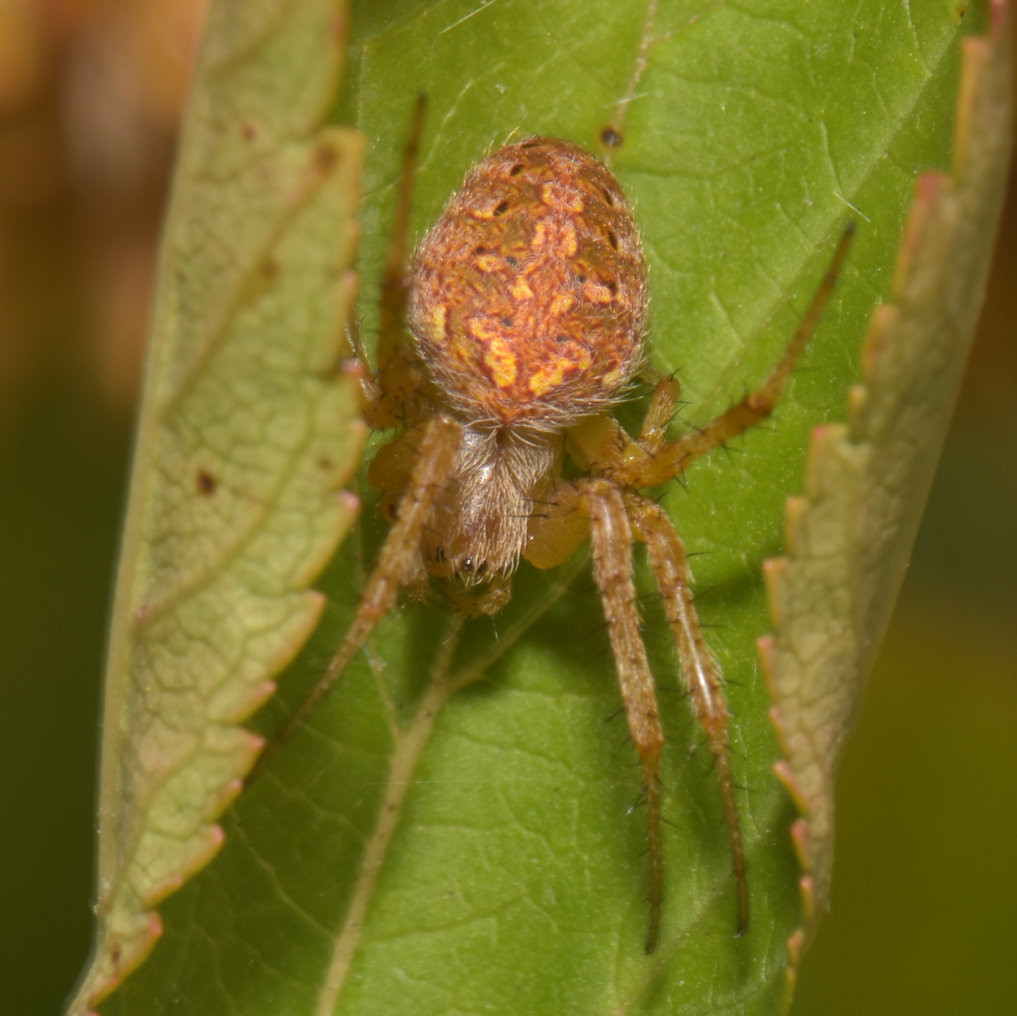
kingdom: Animalia
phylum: Arthropoda
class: Arachnida
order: Araneae
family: Araneidae
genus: Neoscona
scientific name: Neoscona arabesca
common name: Orb weavers
